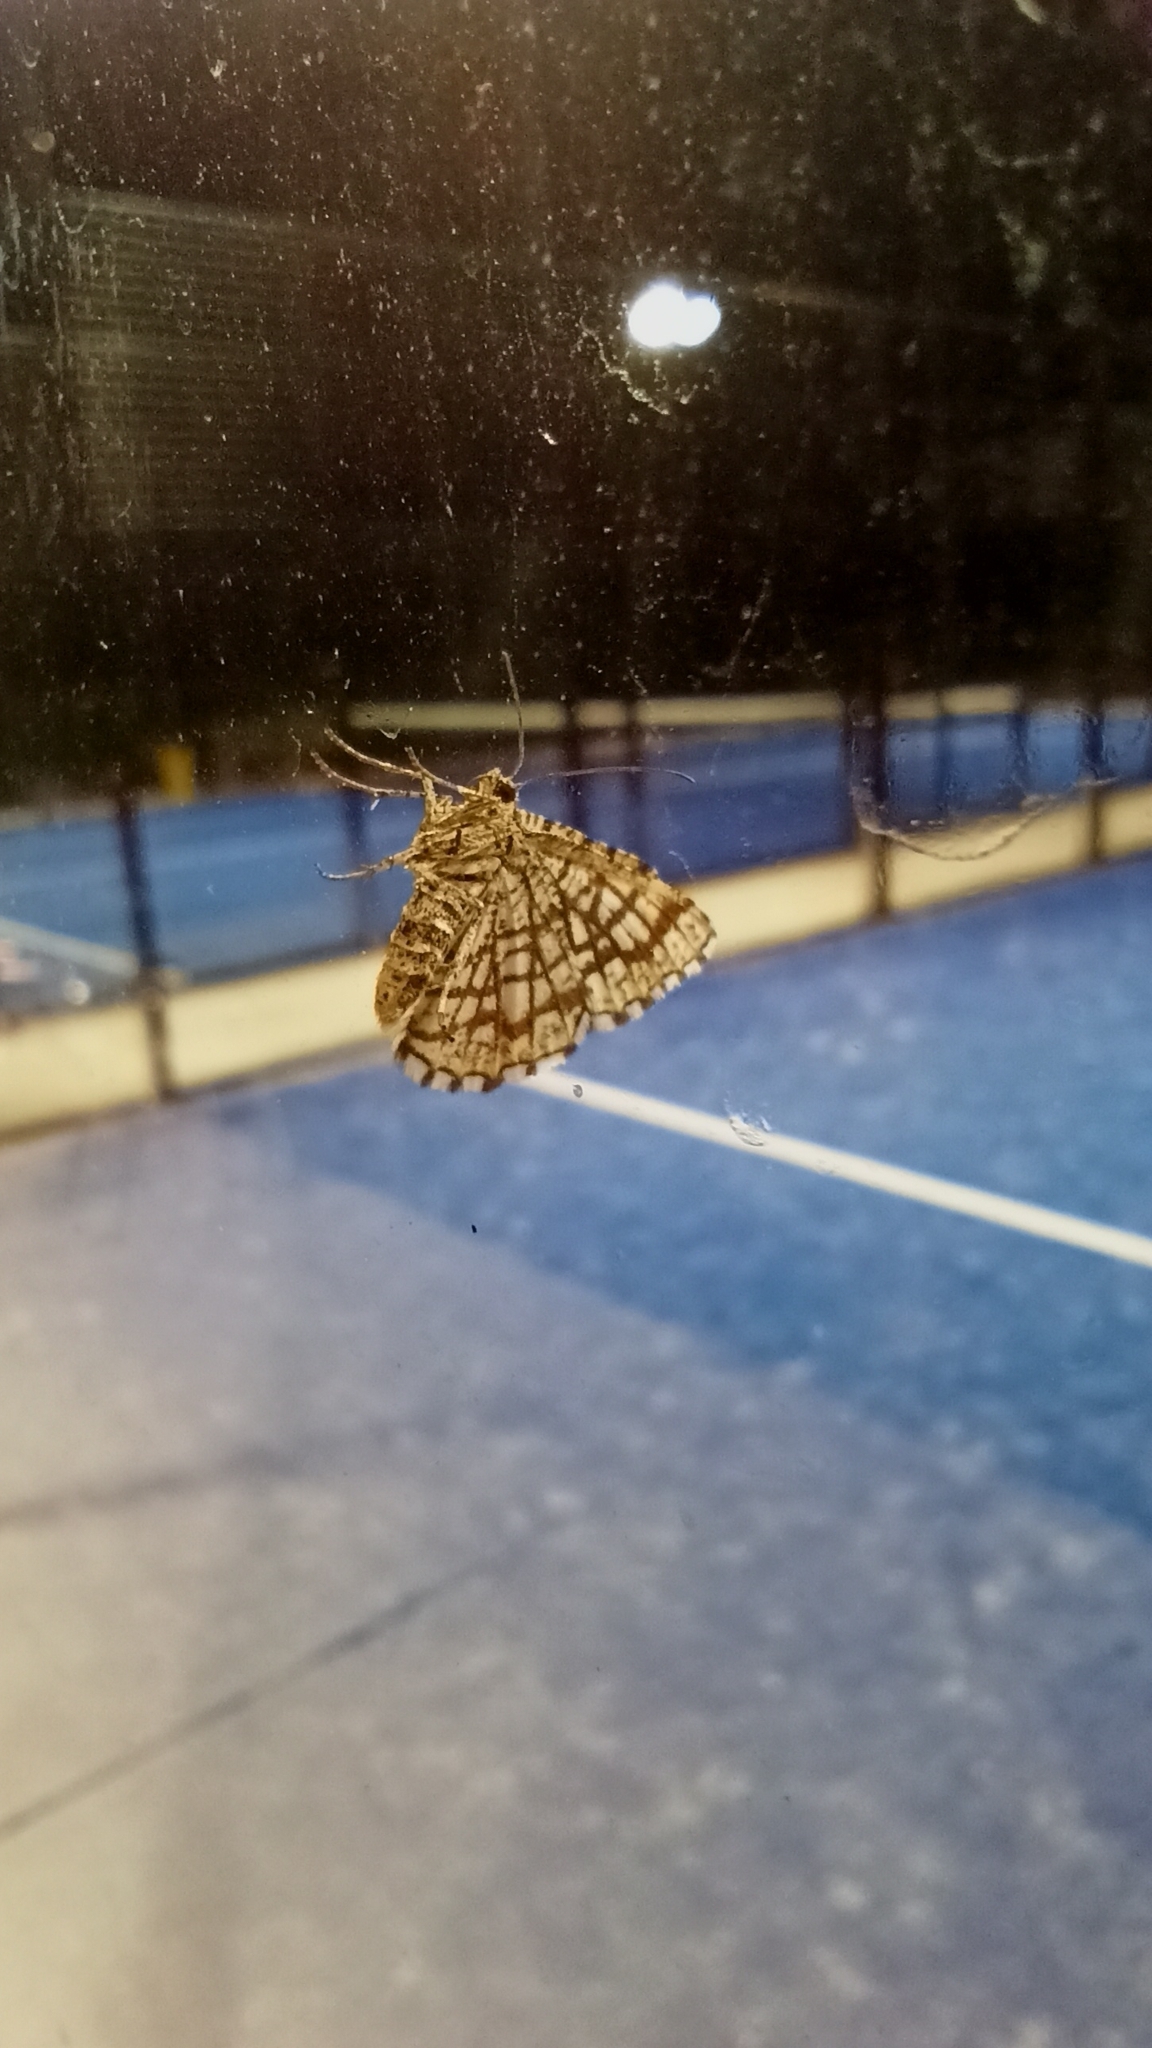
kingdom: Animalia
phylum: Arthropoda
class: Insecta
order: Lepidoptera
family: Geometridae
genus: Chiasmia
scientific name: Chiasmia clathrata
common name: Latticed heath
